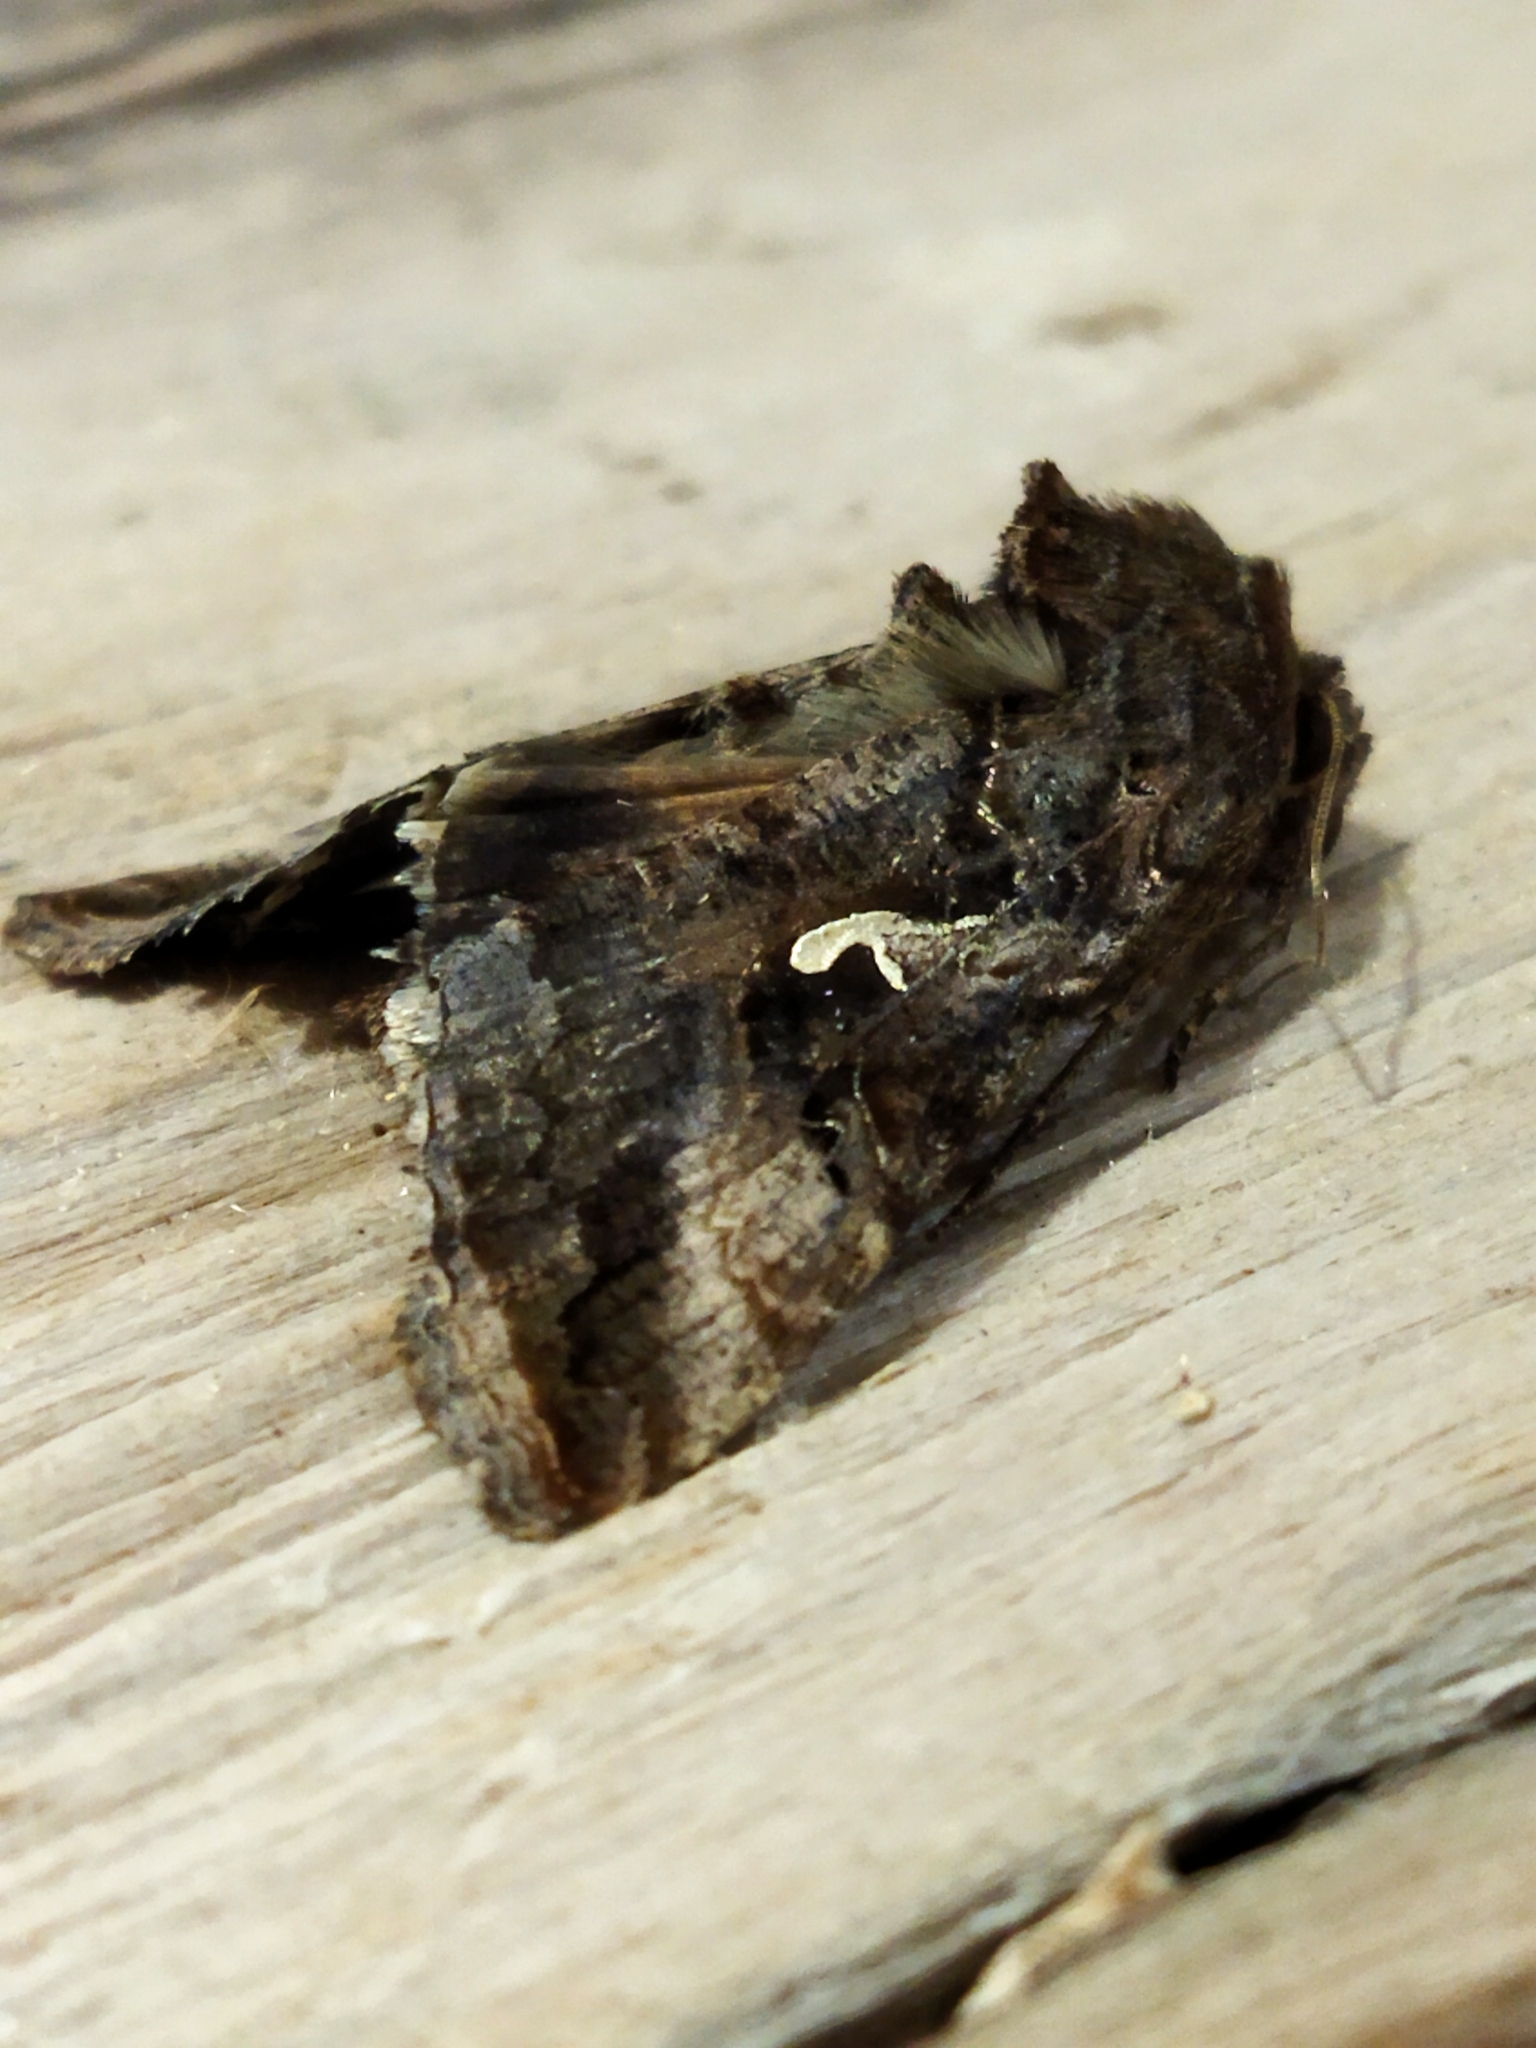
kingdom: Animalia
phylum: Arthropoda
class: Insecta
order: Lepidoptera
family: Noctuidae
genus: Autographa
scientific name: Autographa gamma
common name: Silver y
